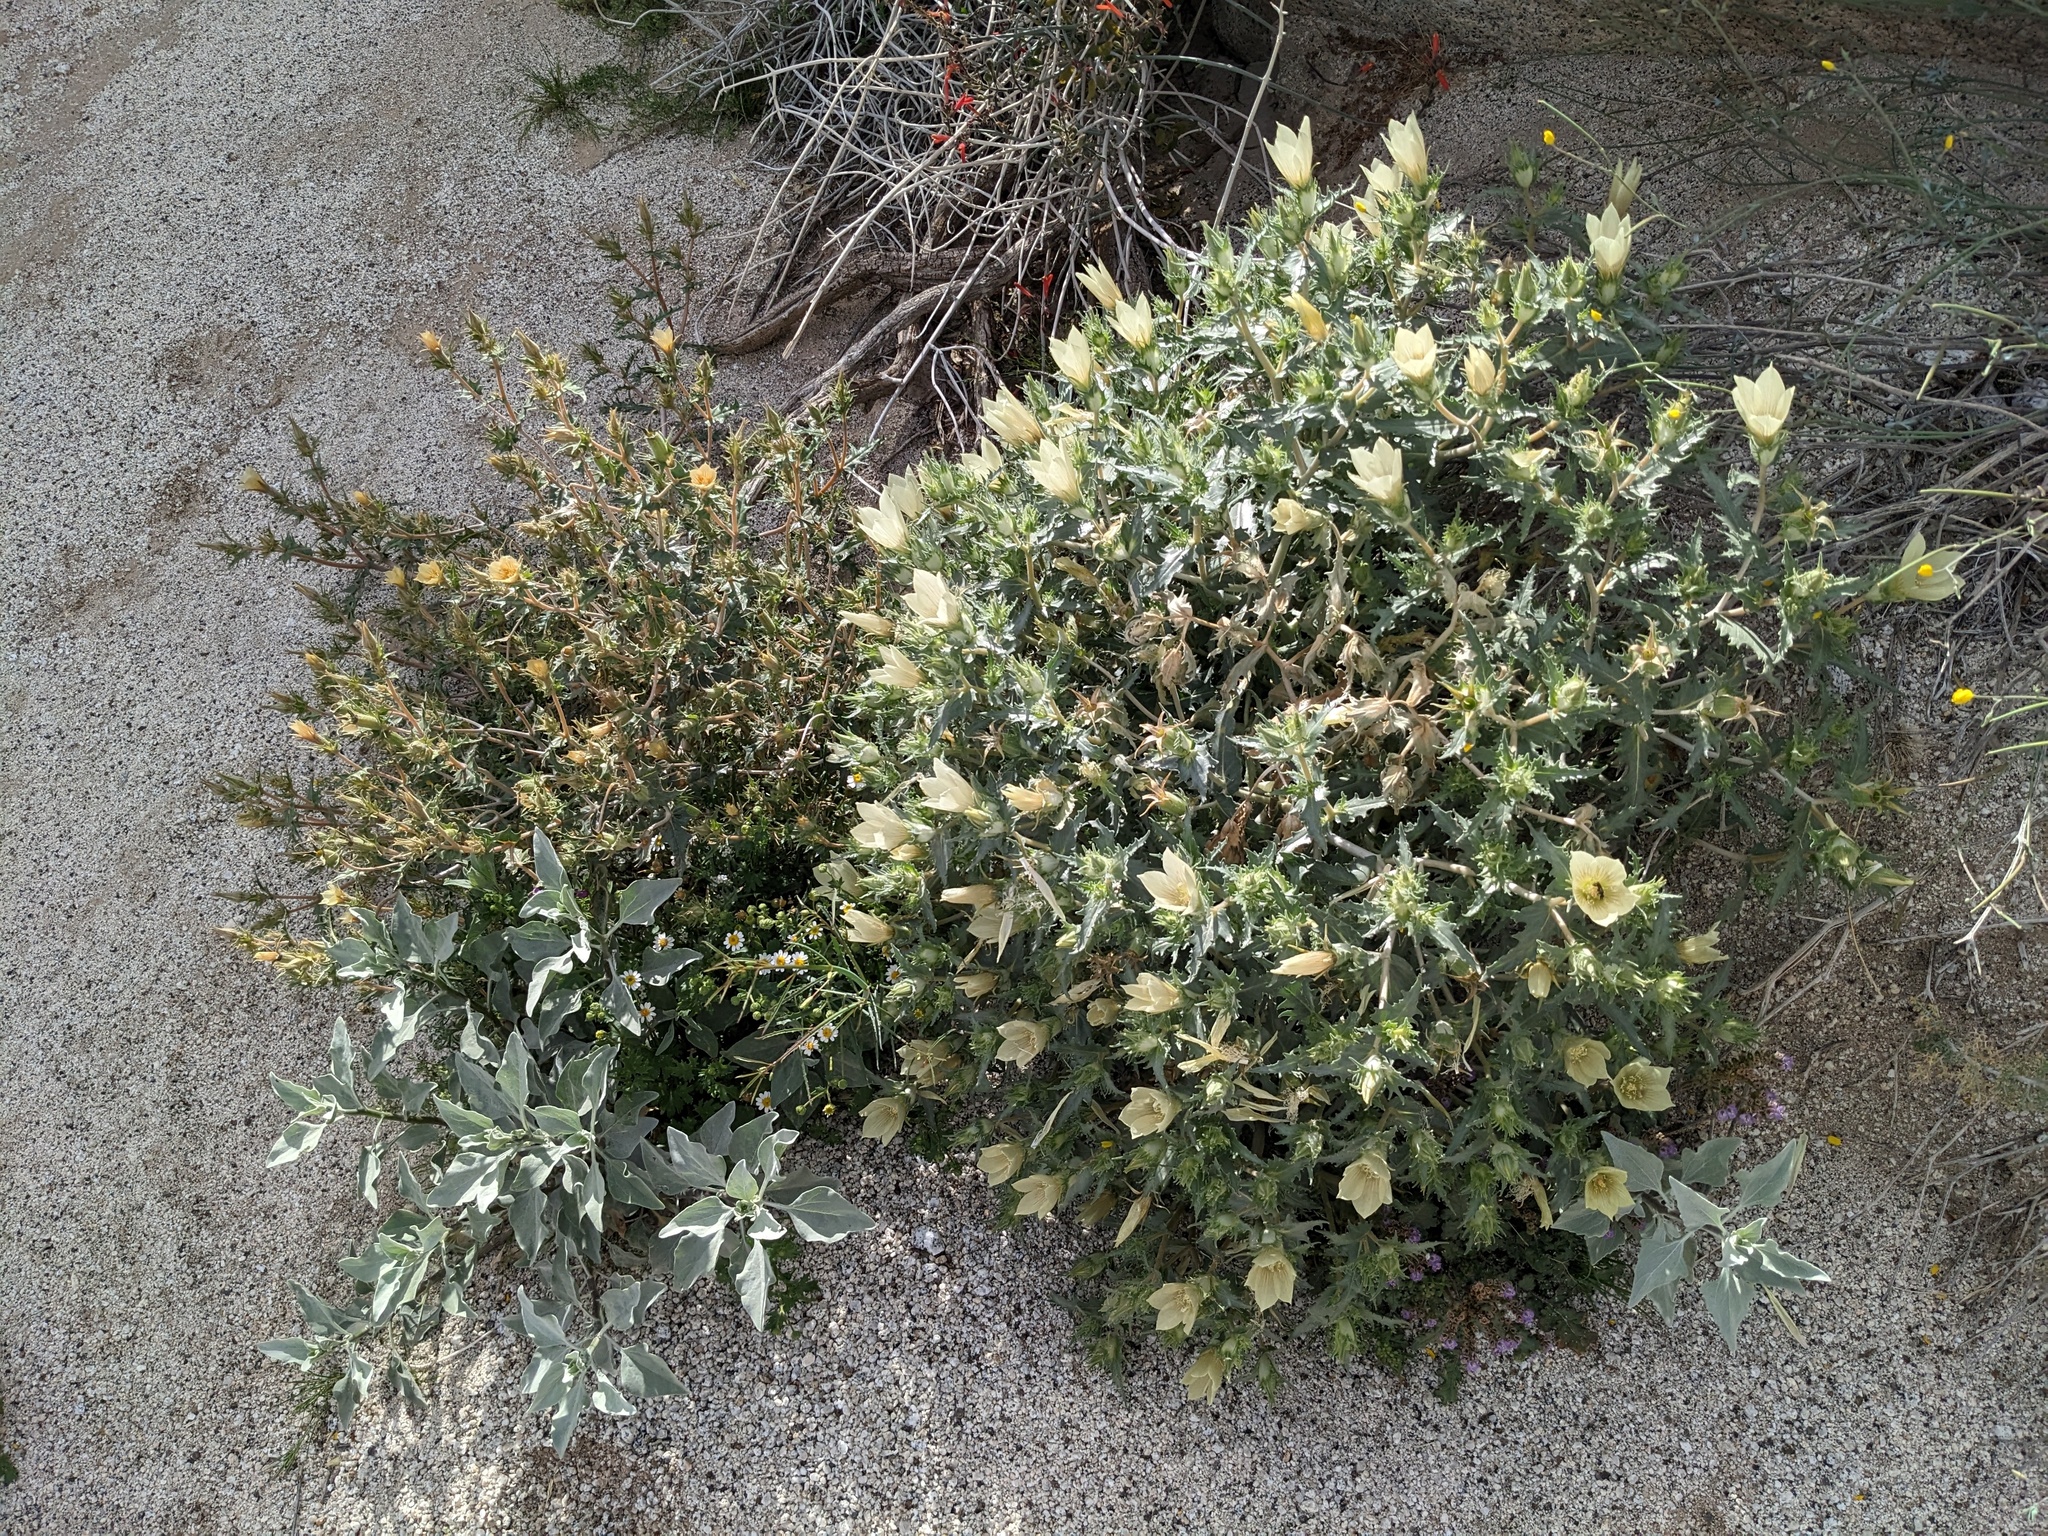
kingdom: Plantae
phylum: Tracheophyta
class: Magnoliopsida
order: Cornales
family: Loasaceae
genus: Mentzelia
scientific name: Mentzelia involucrata
